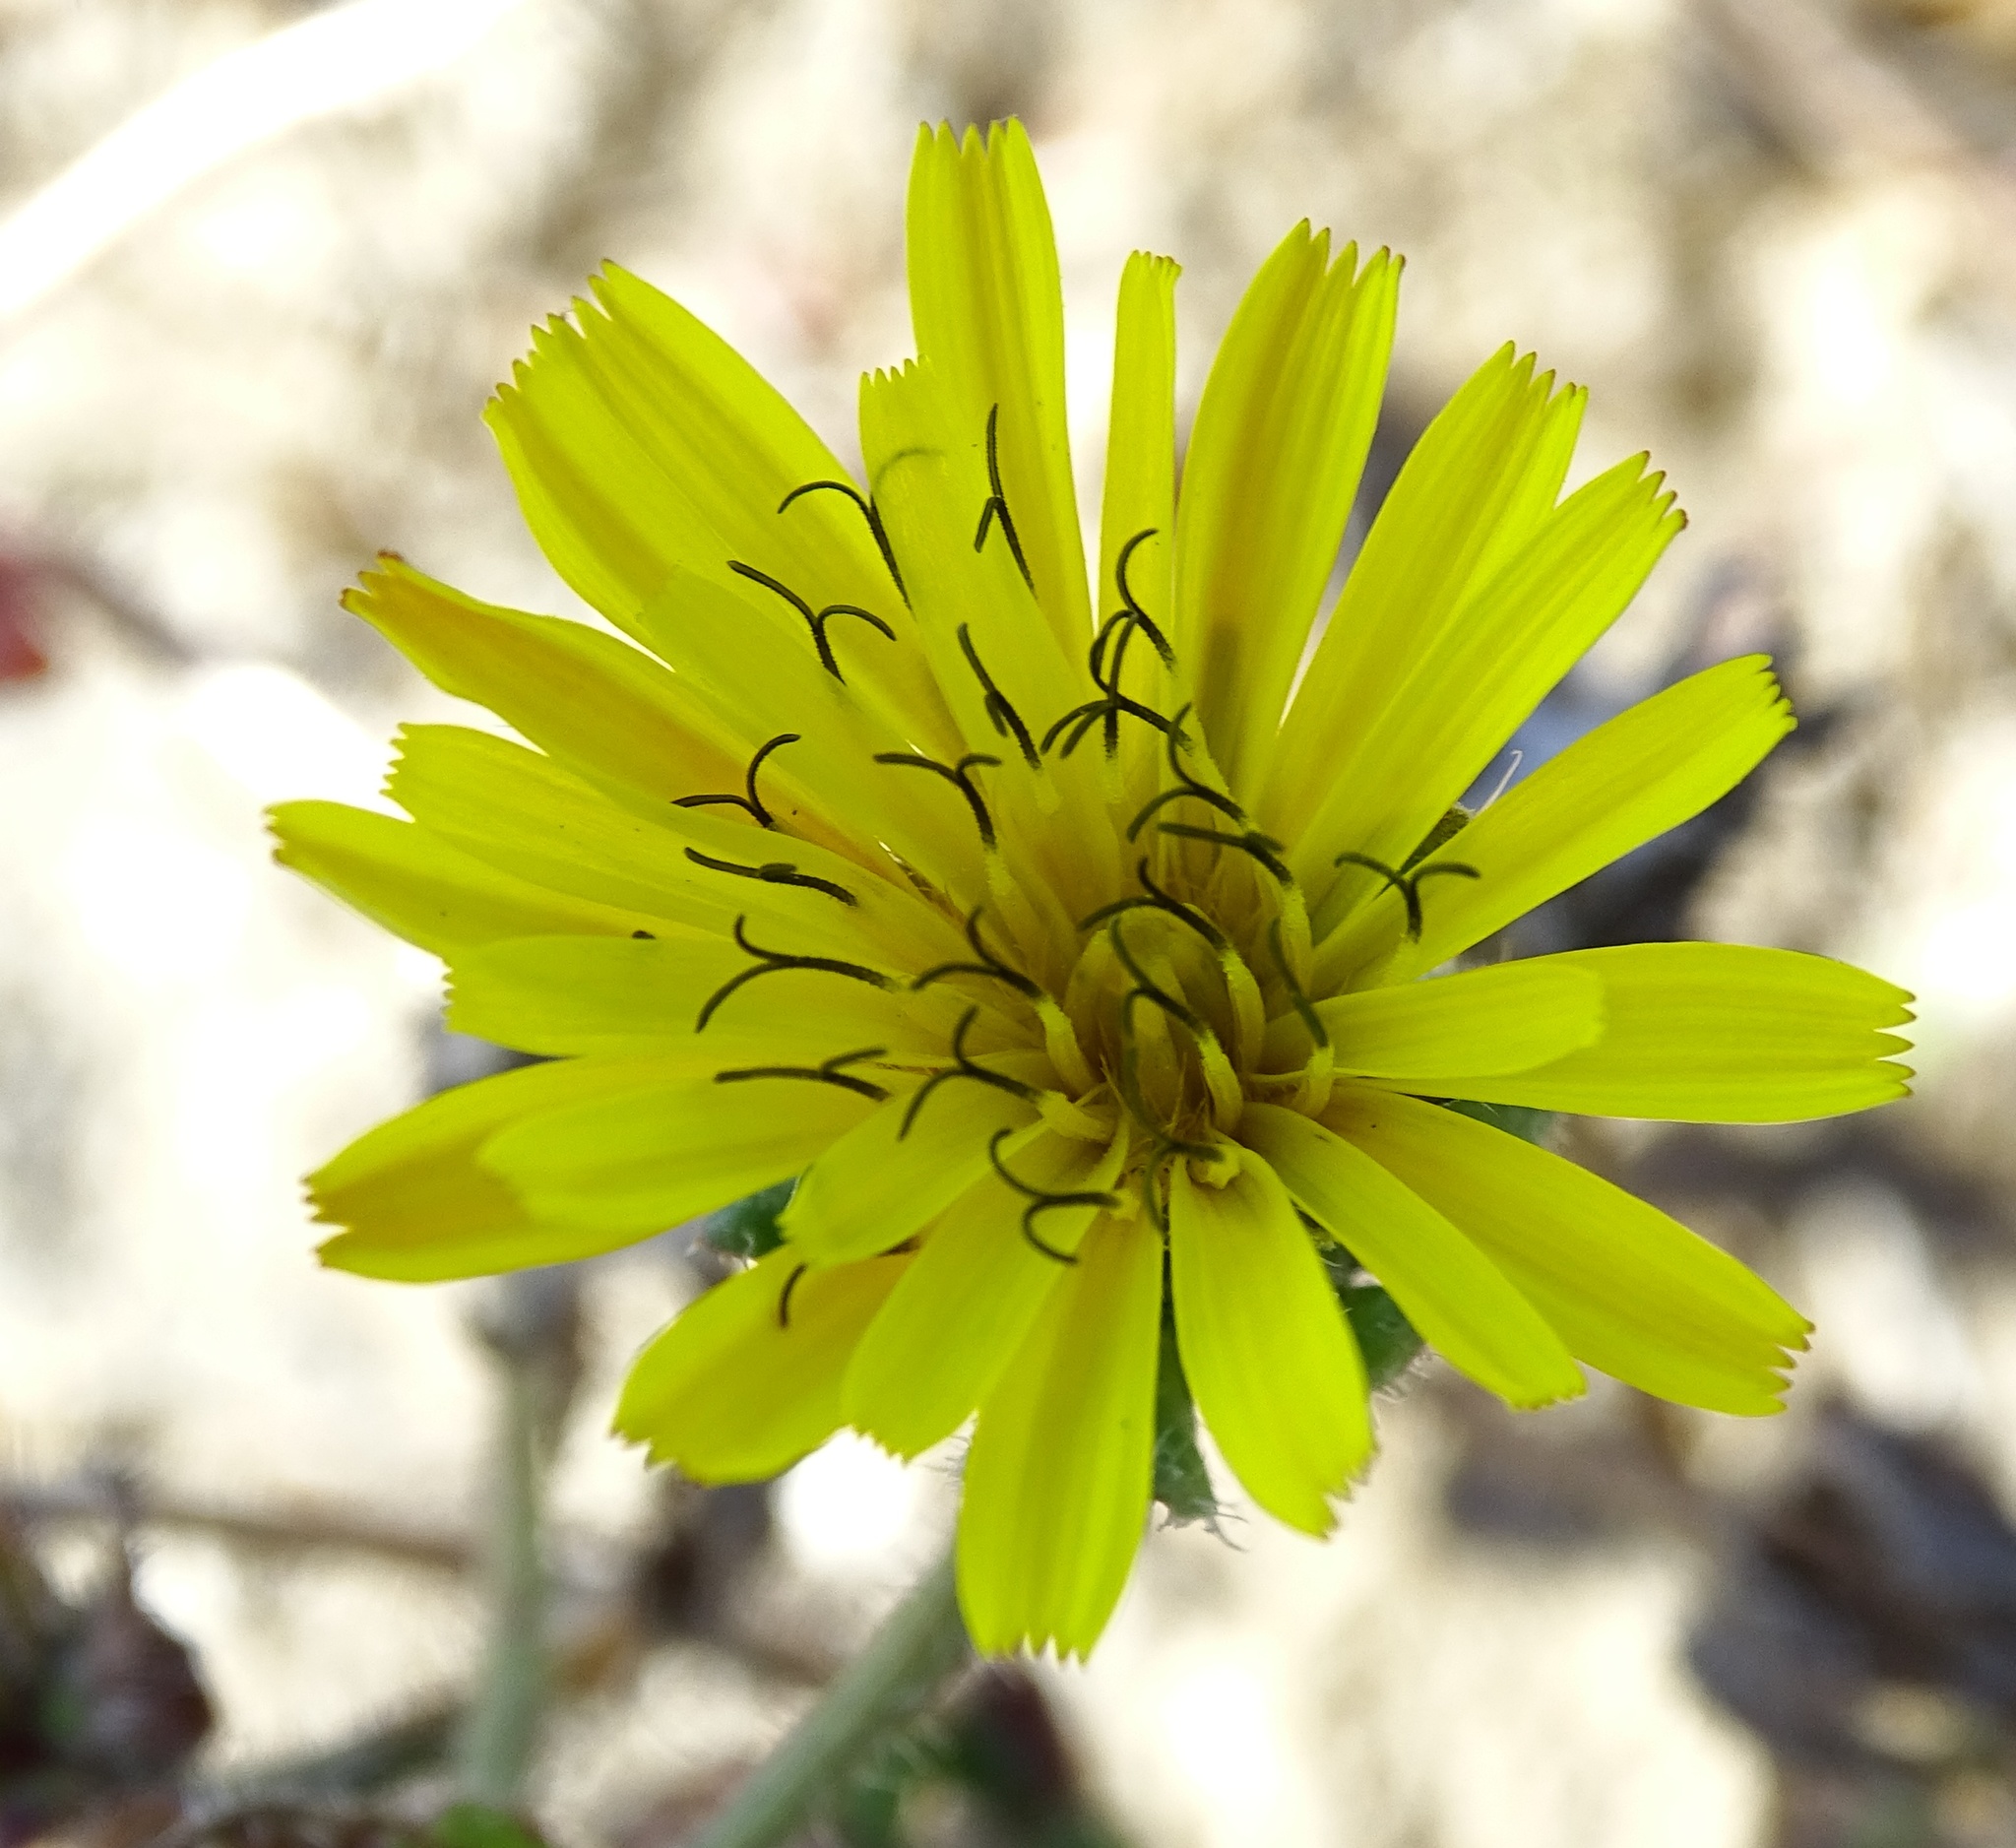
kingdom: Plantae
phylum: Tracheophyta
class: Magnoliopsida
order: Asterales
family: Asteraceae
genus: Helminthotheca
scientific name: Helminthotheca echioides
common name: Ox-tongue
